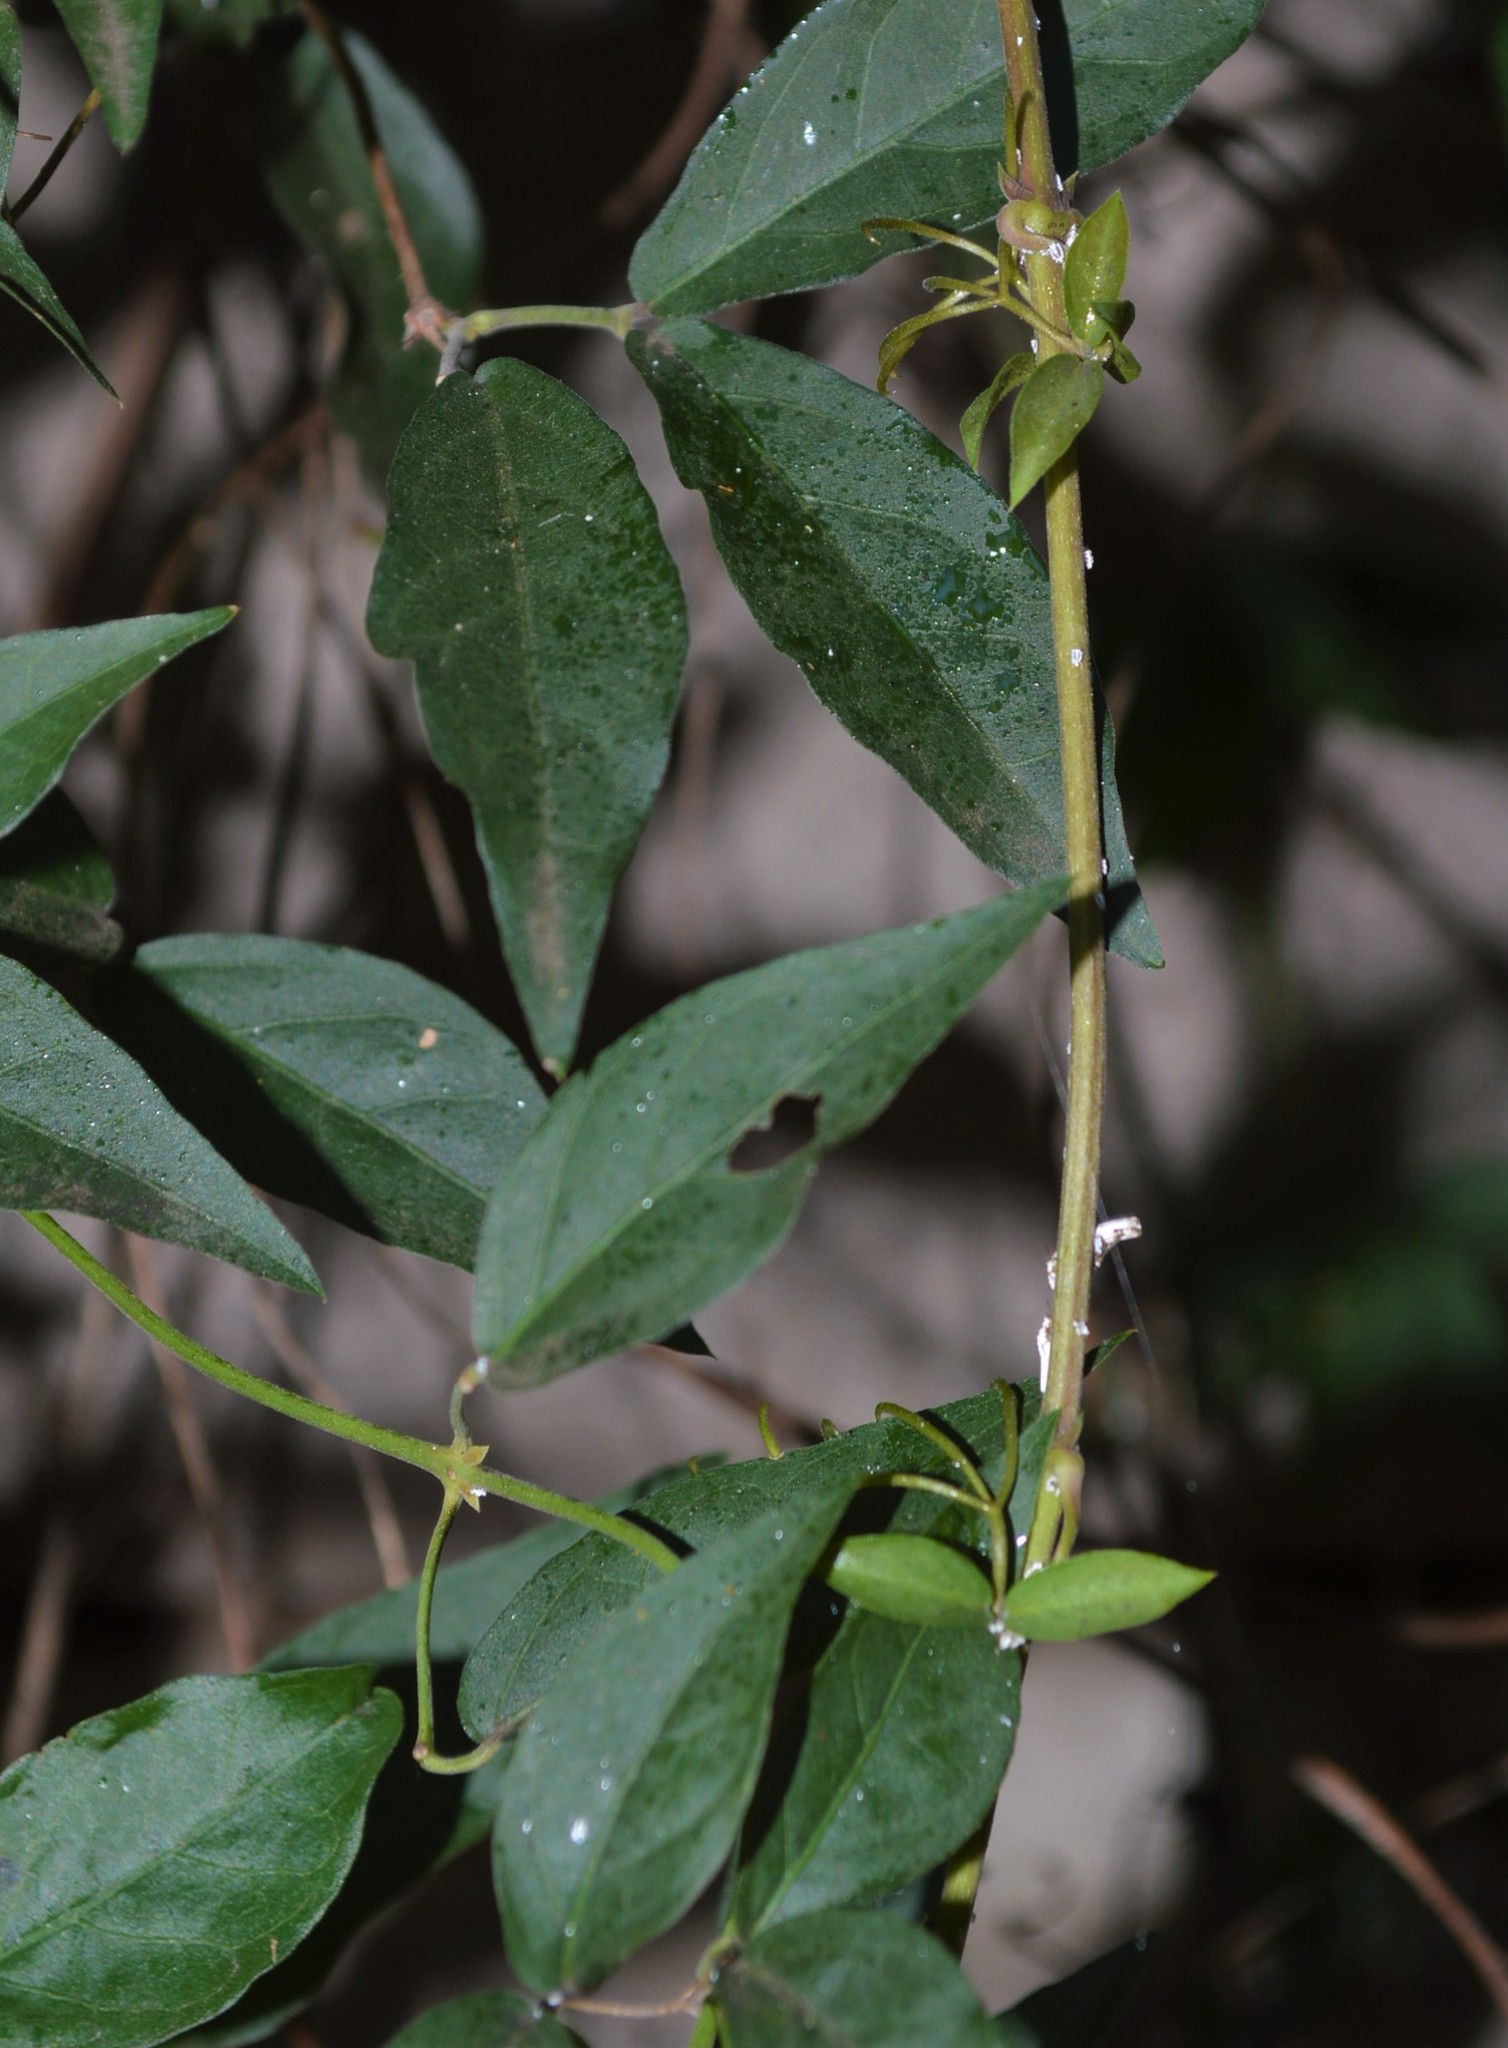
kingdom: Plantae
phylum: Tracheophyta
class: Magnoliopsida
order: Lamiales
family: Bignoniaceae
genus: Dolichandra
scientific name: Dolichandra unguis-cati
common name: Catclaw vine
